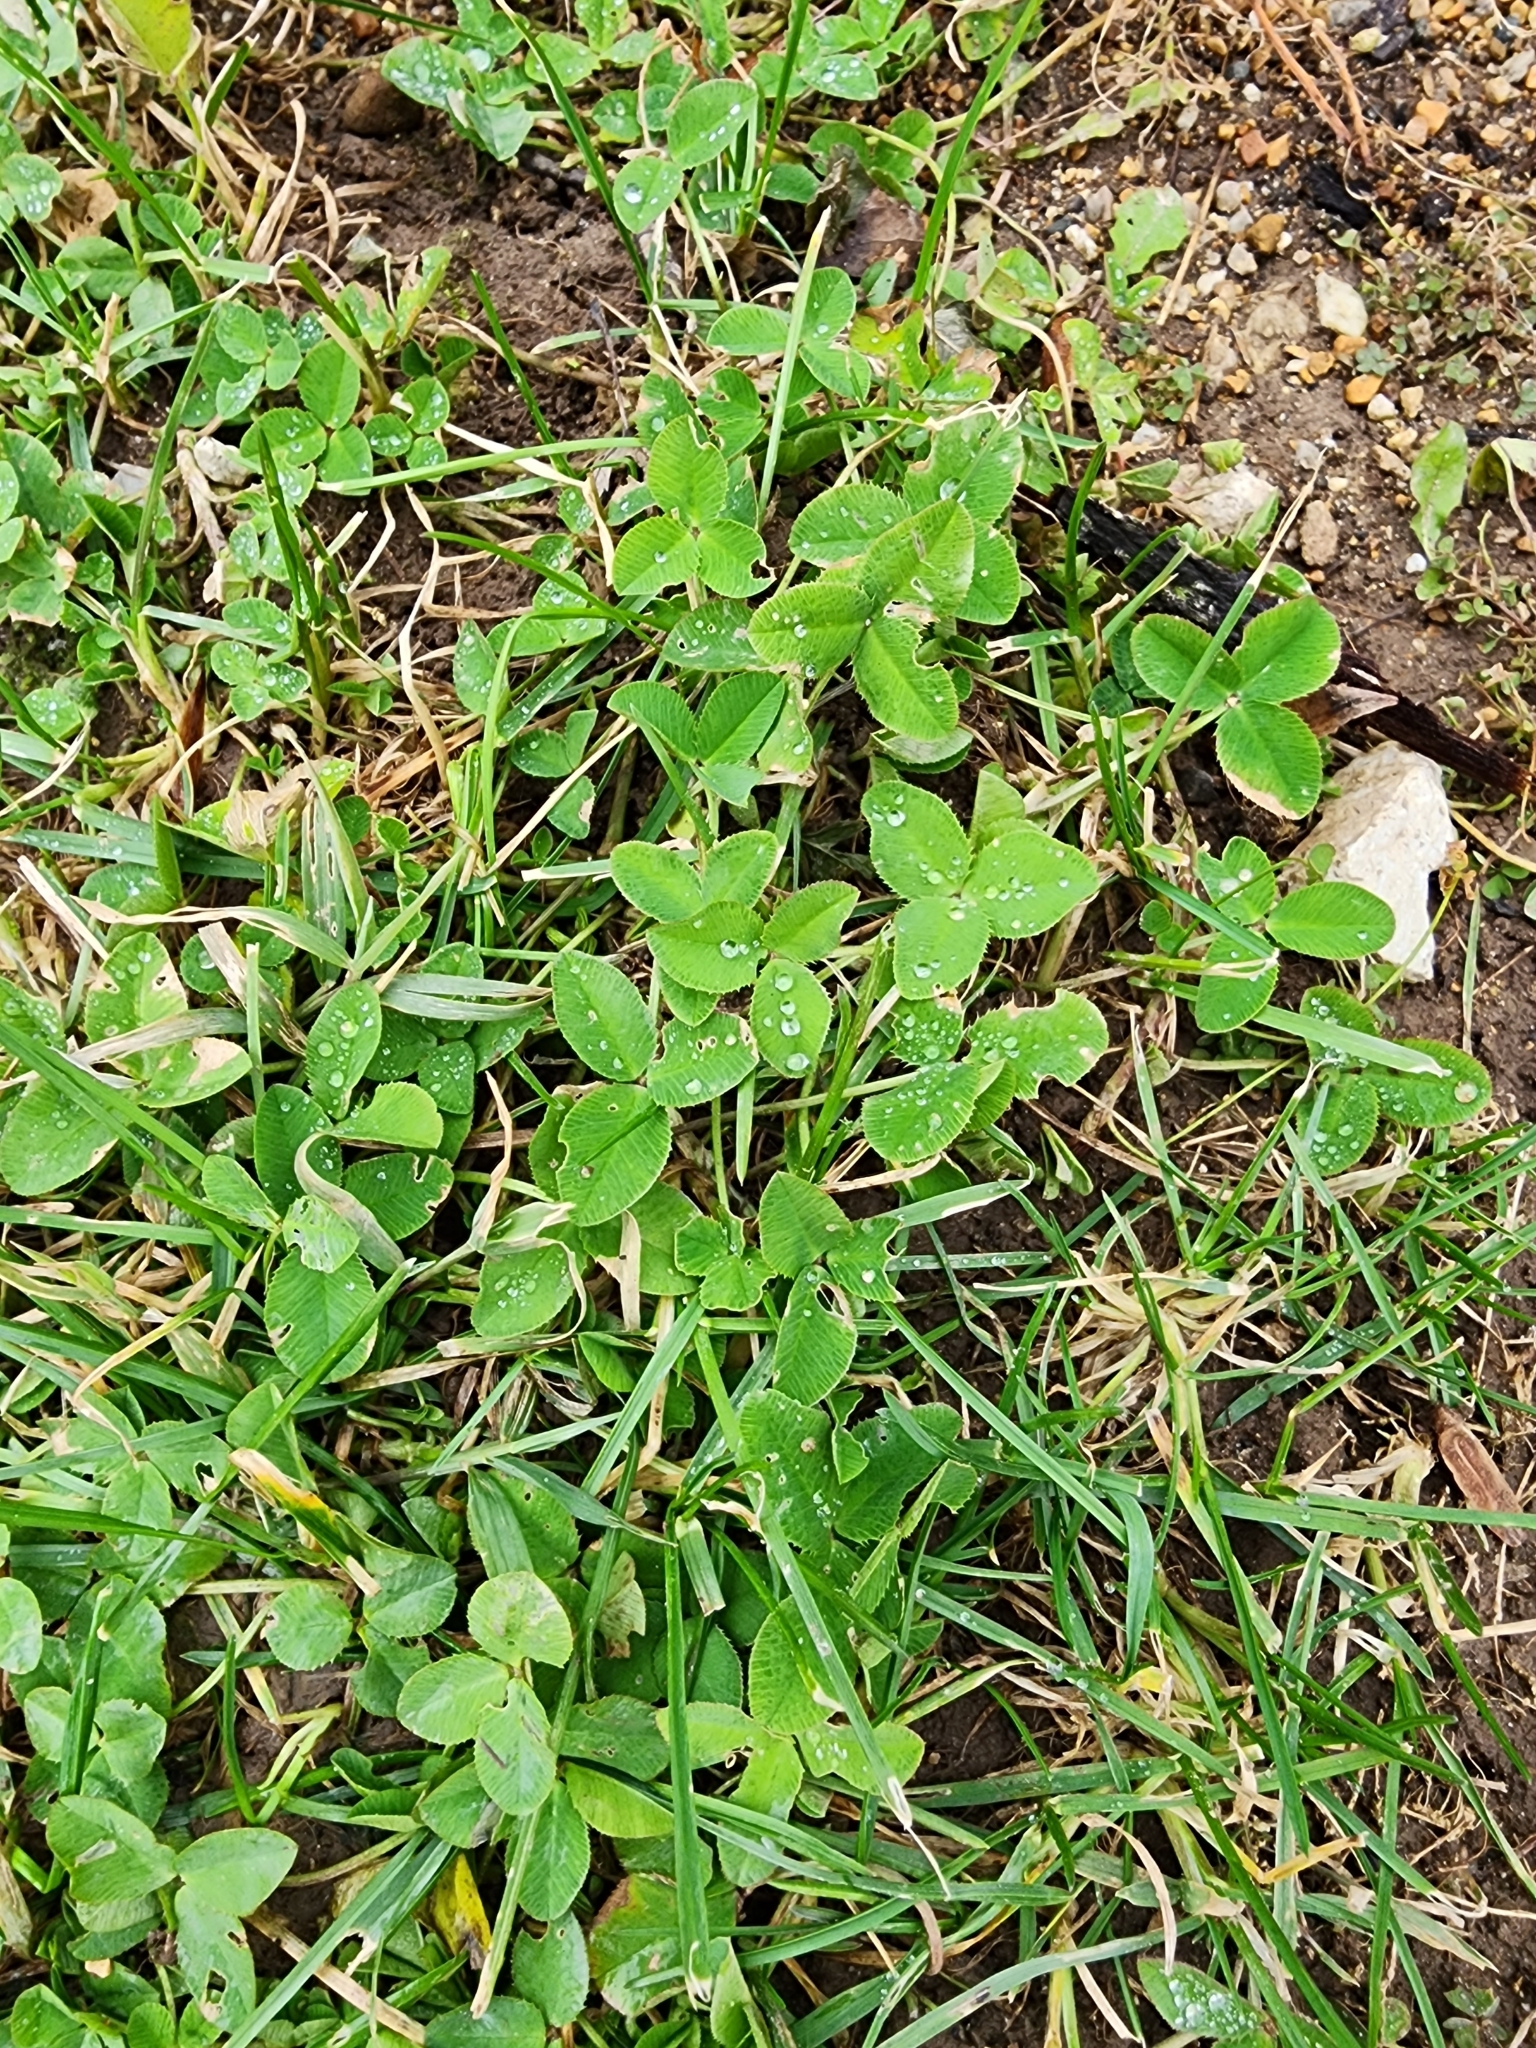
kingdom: Plantae
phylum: Tracheophyta
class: Magnoliopsida
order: Fabales
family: Fabaceae
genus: Trifolium
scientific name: Trifolium repens
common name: White clover
